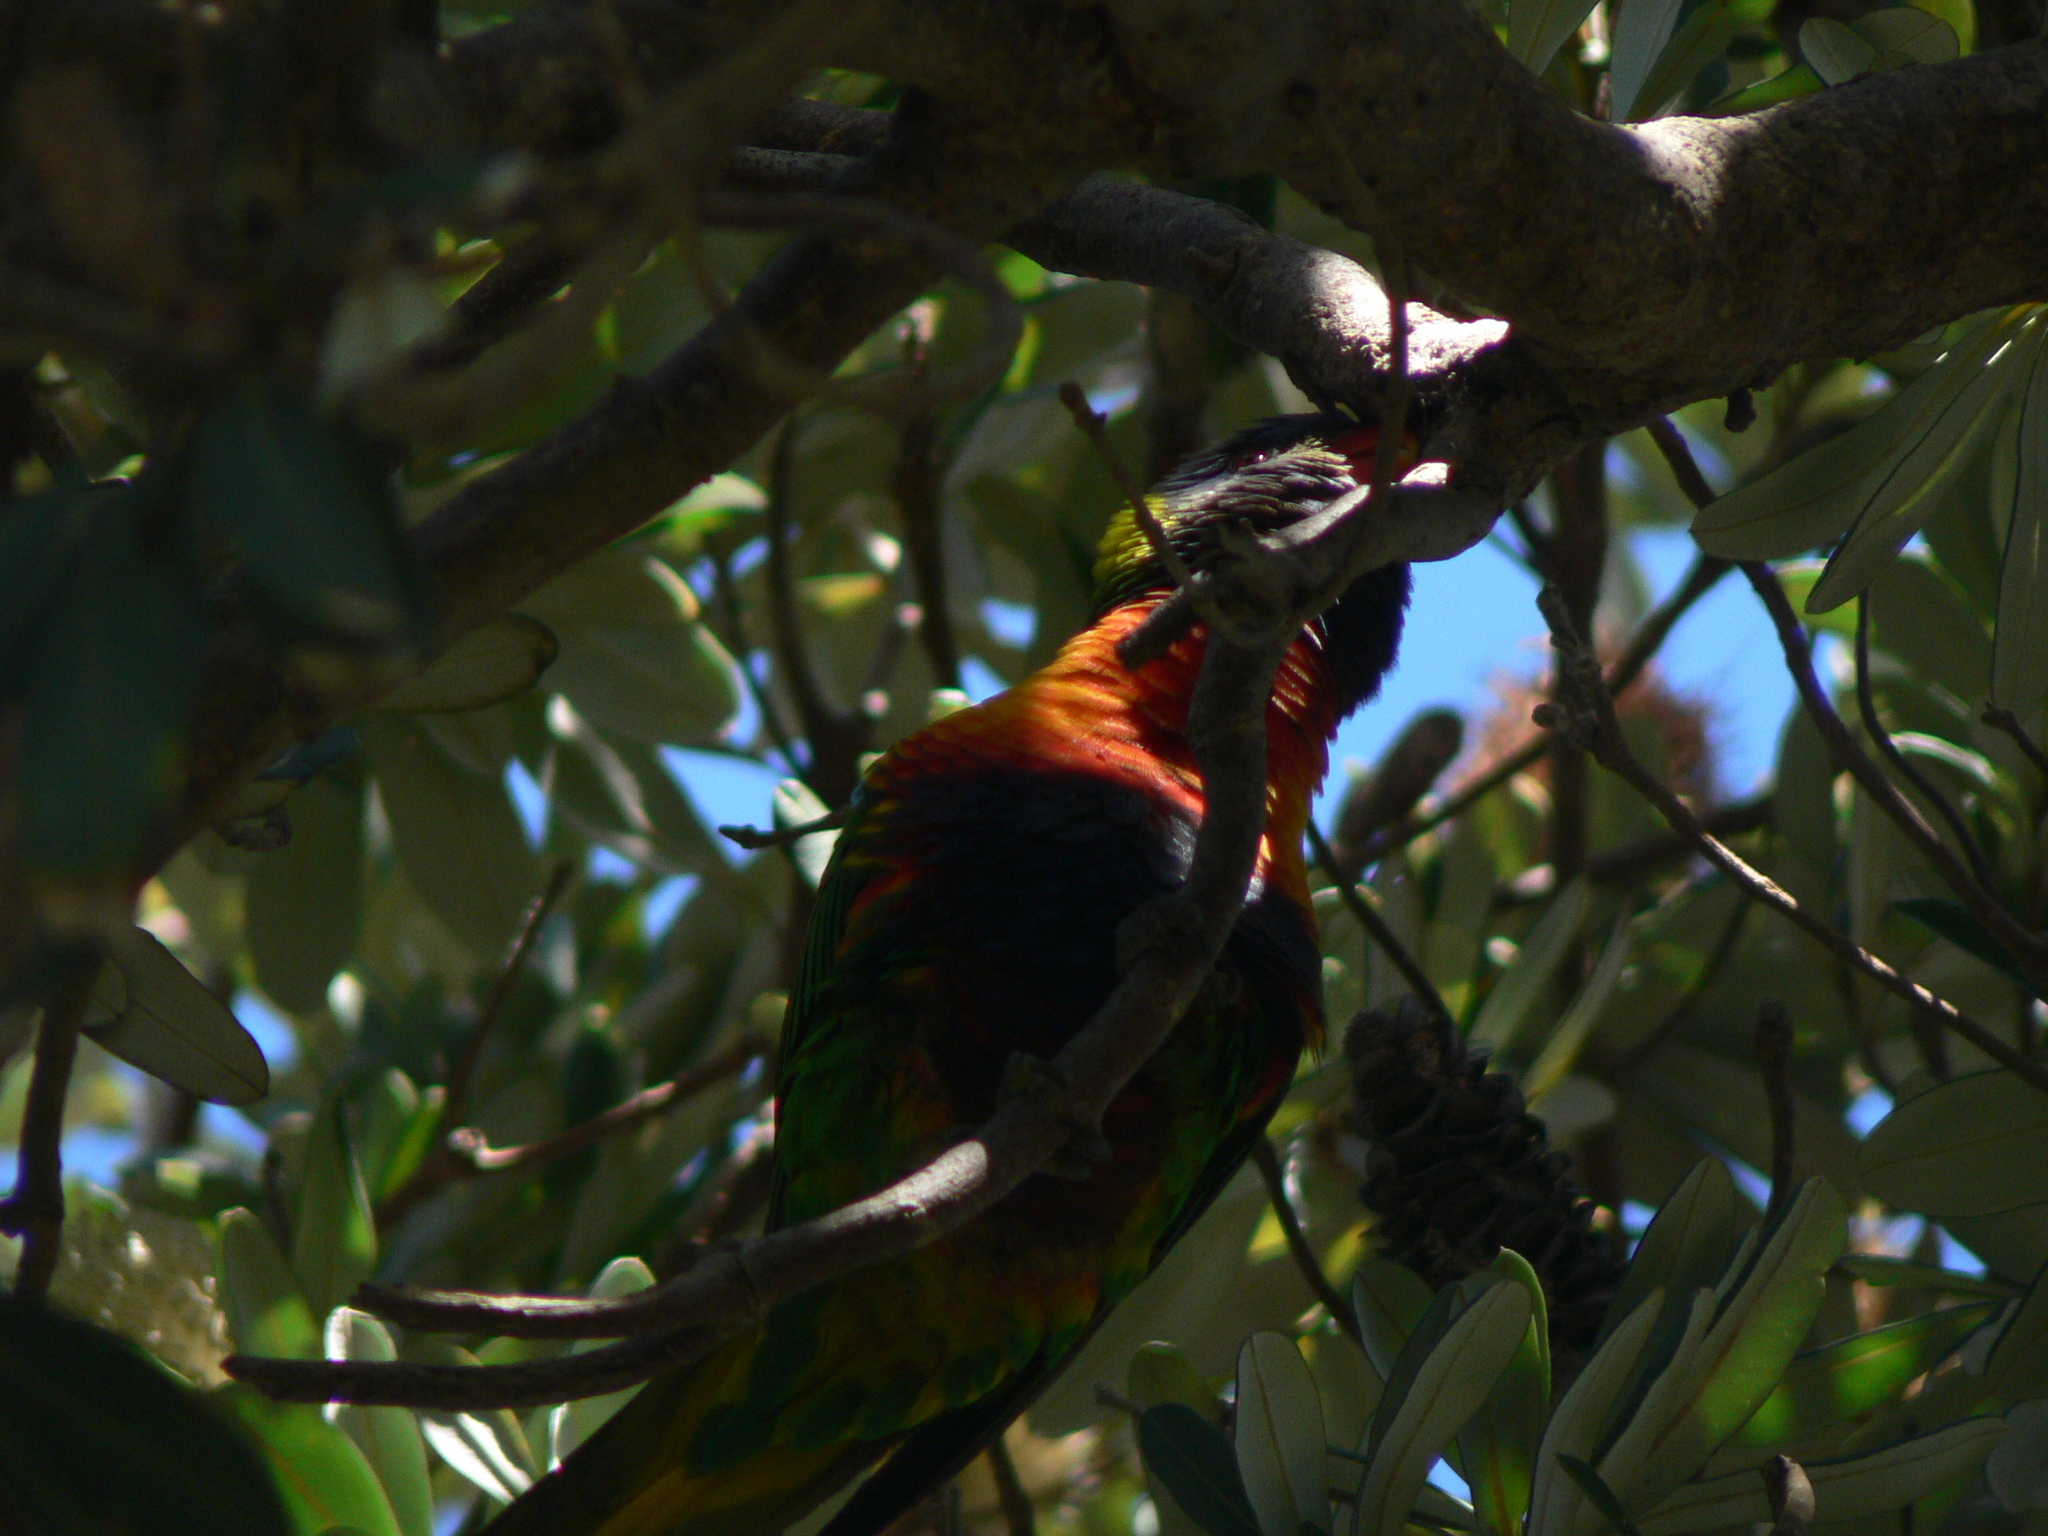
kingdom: Animalia
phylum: Chordata
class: Aves
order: Psittaciformes
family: Psittacidae
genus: Trichoglossus
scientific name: Trichoglossus haematodus
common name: Coconut lorikeet
